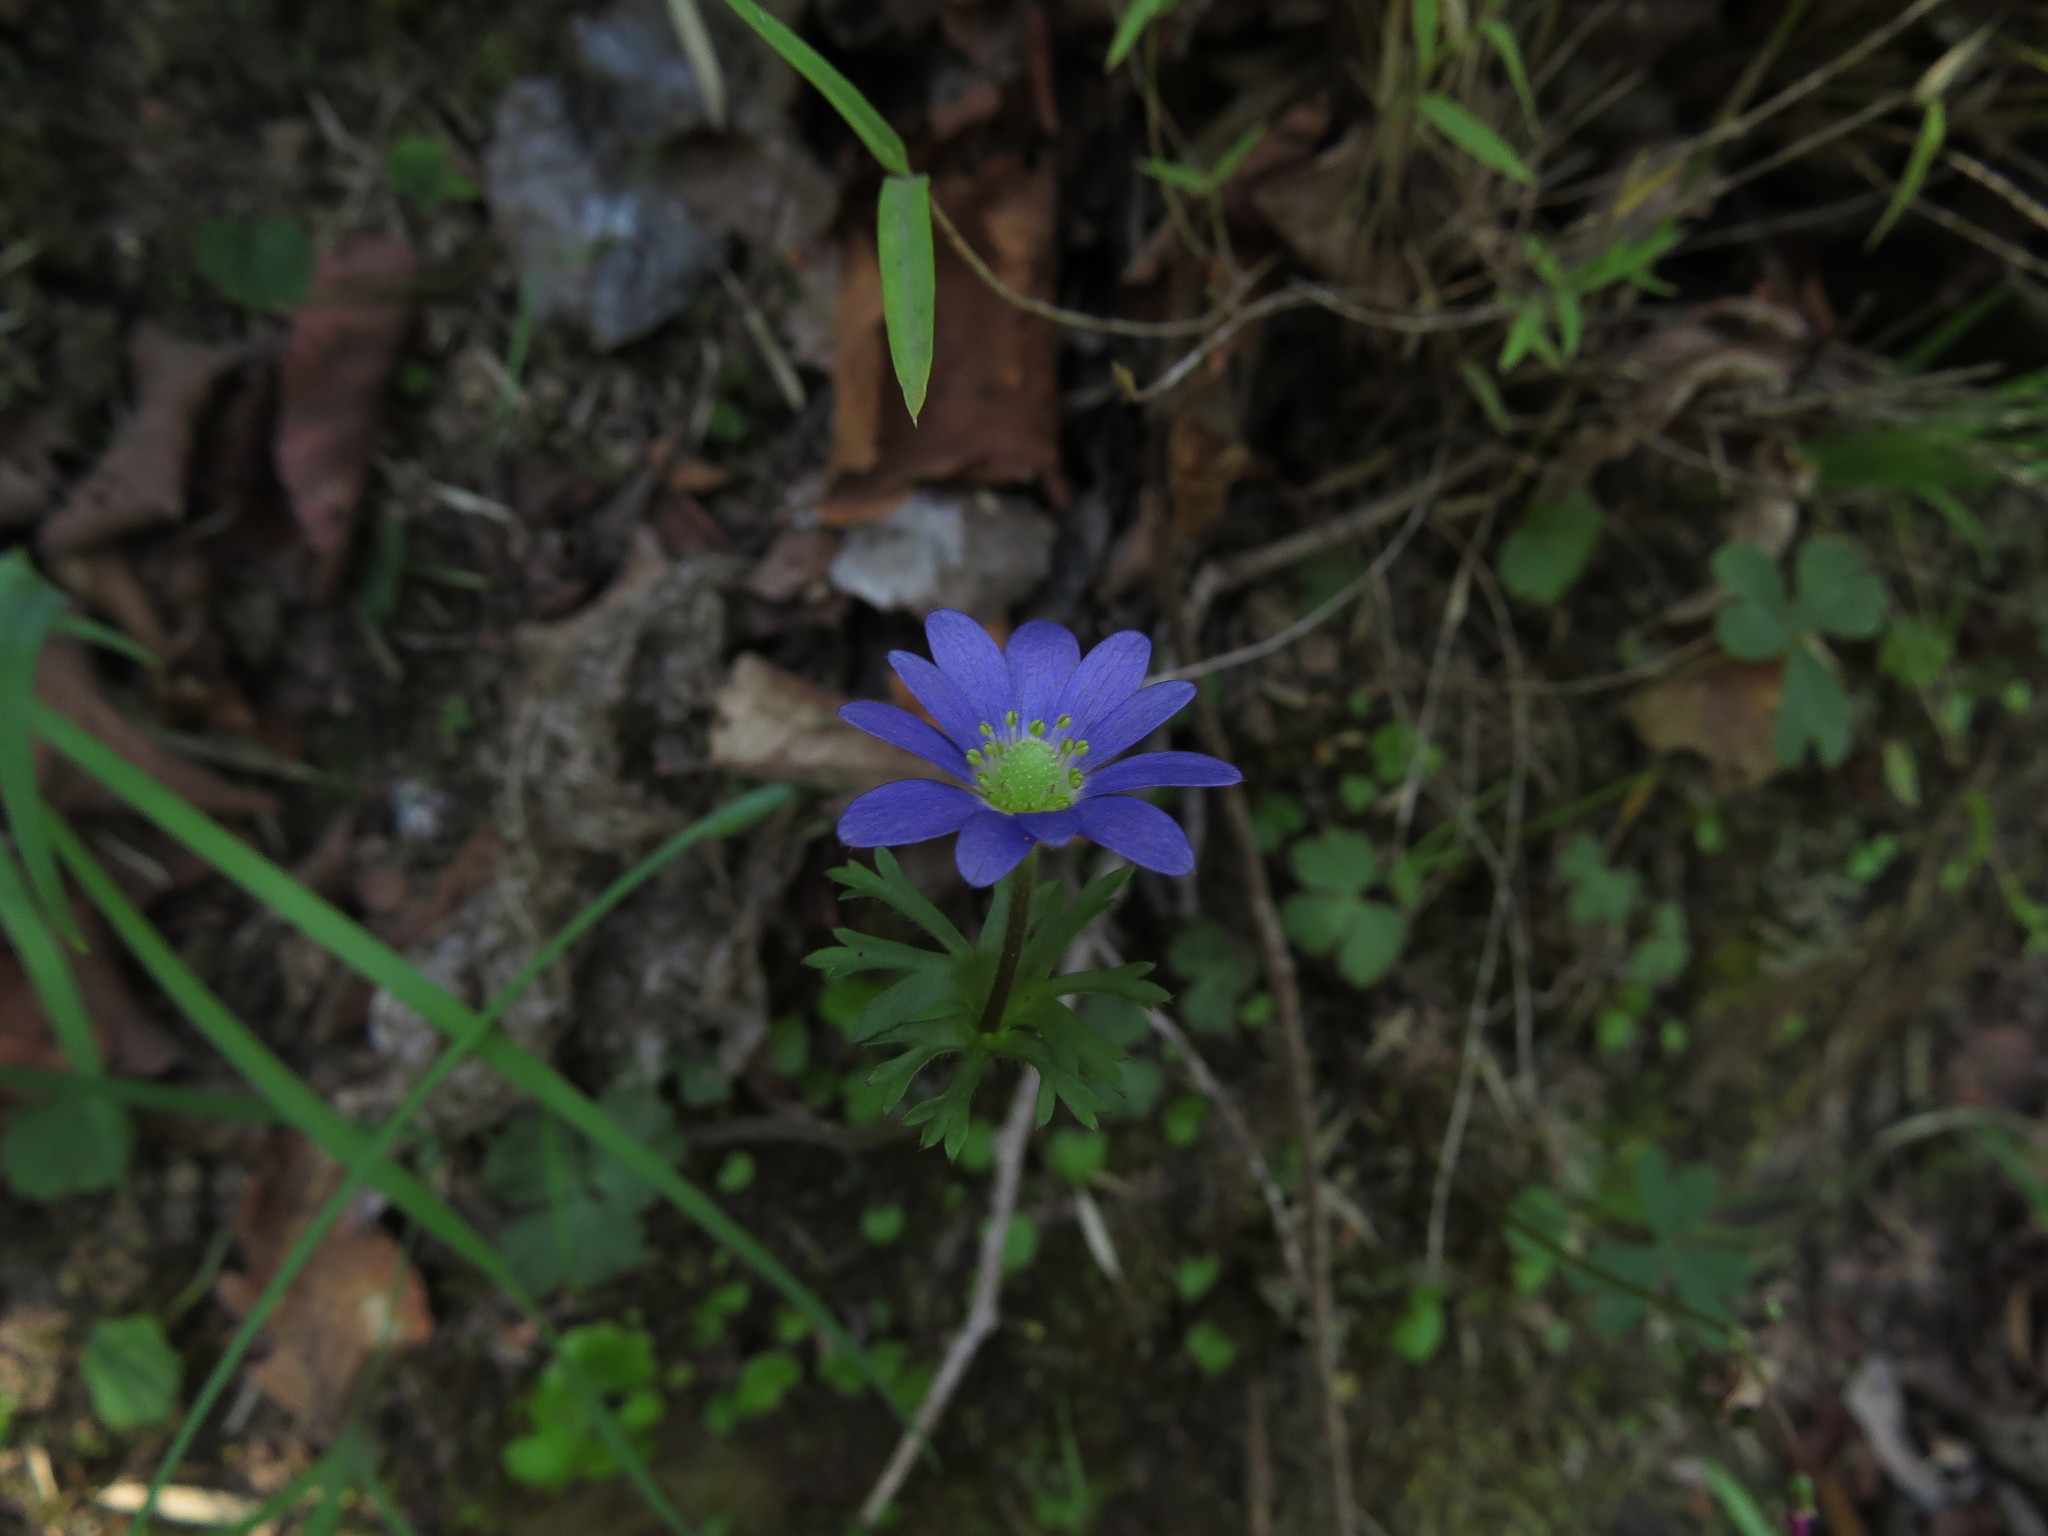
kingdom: Plantae
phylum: Tracheophyta
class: Magnoliopsida
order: Ranunculales
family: Ranunculaceae
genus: Anemone
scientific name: Anemone decapetala
